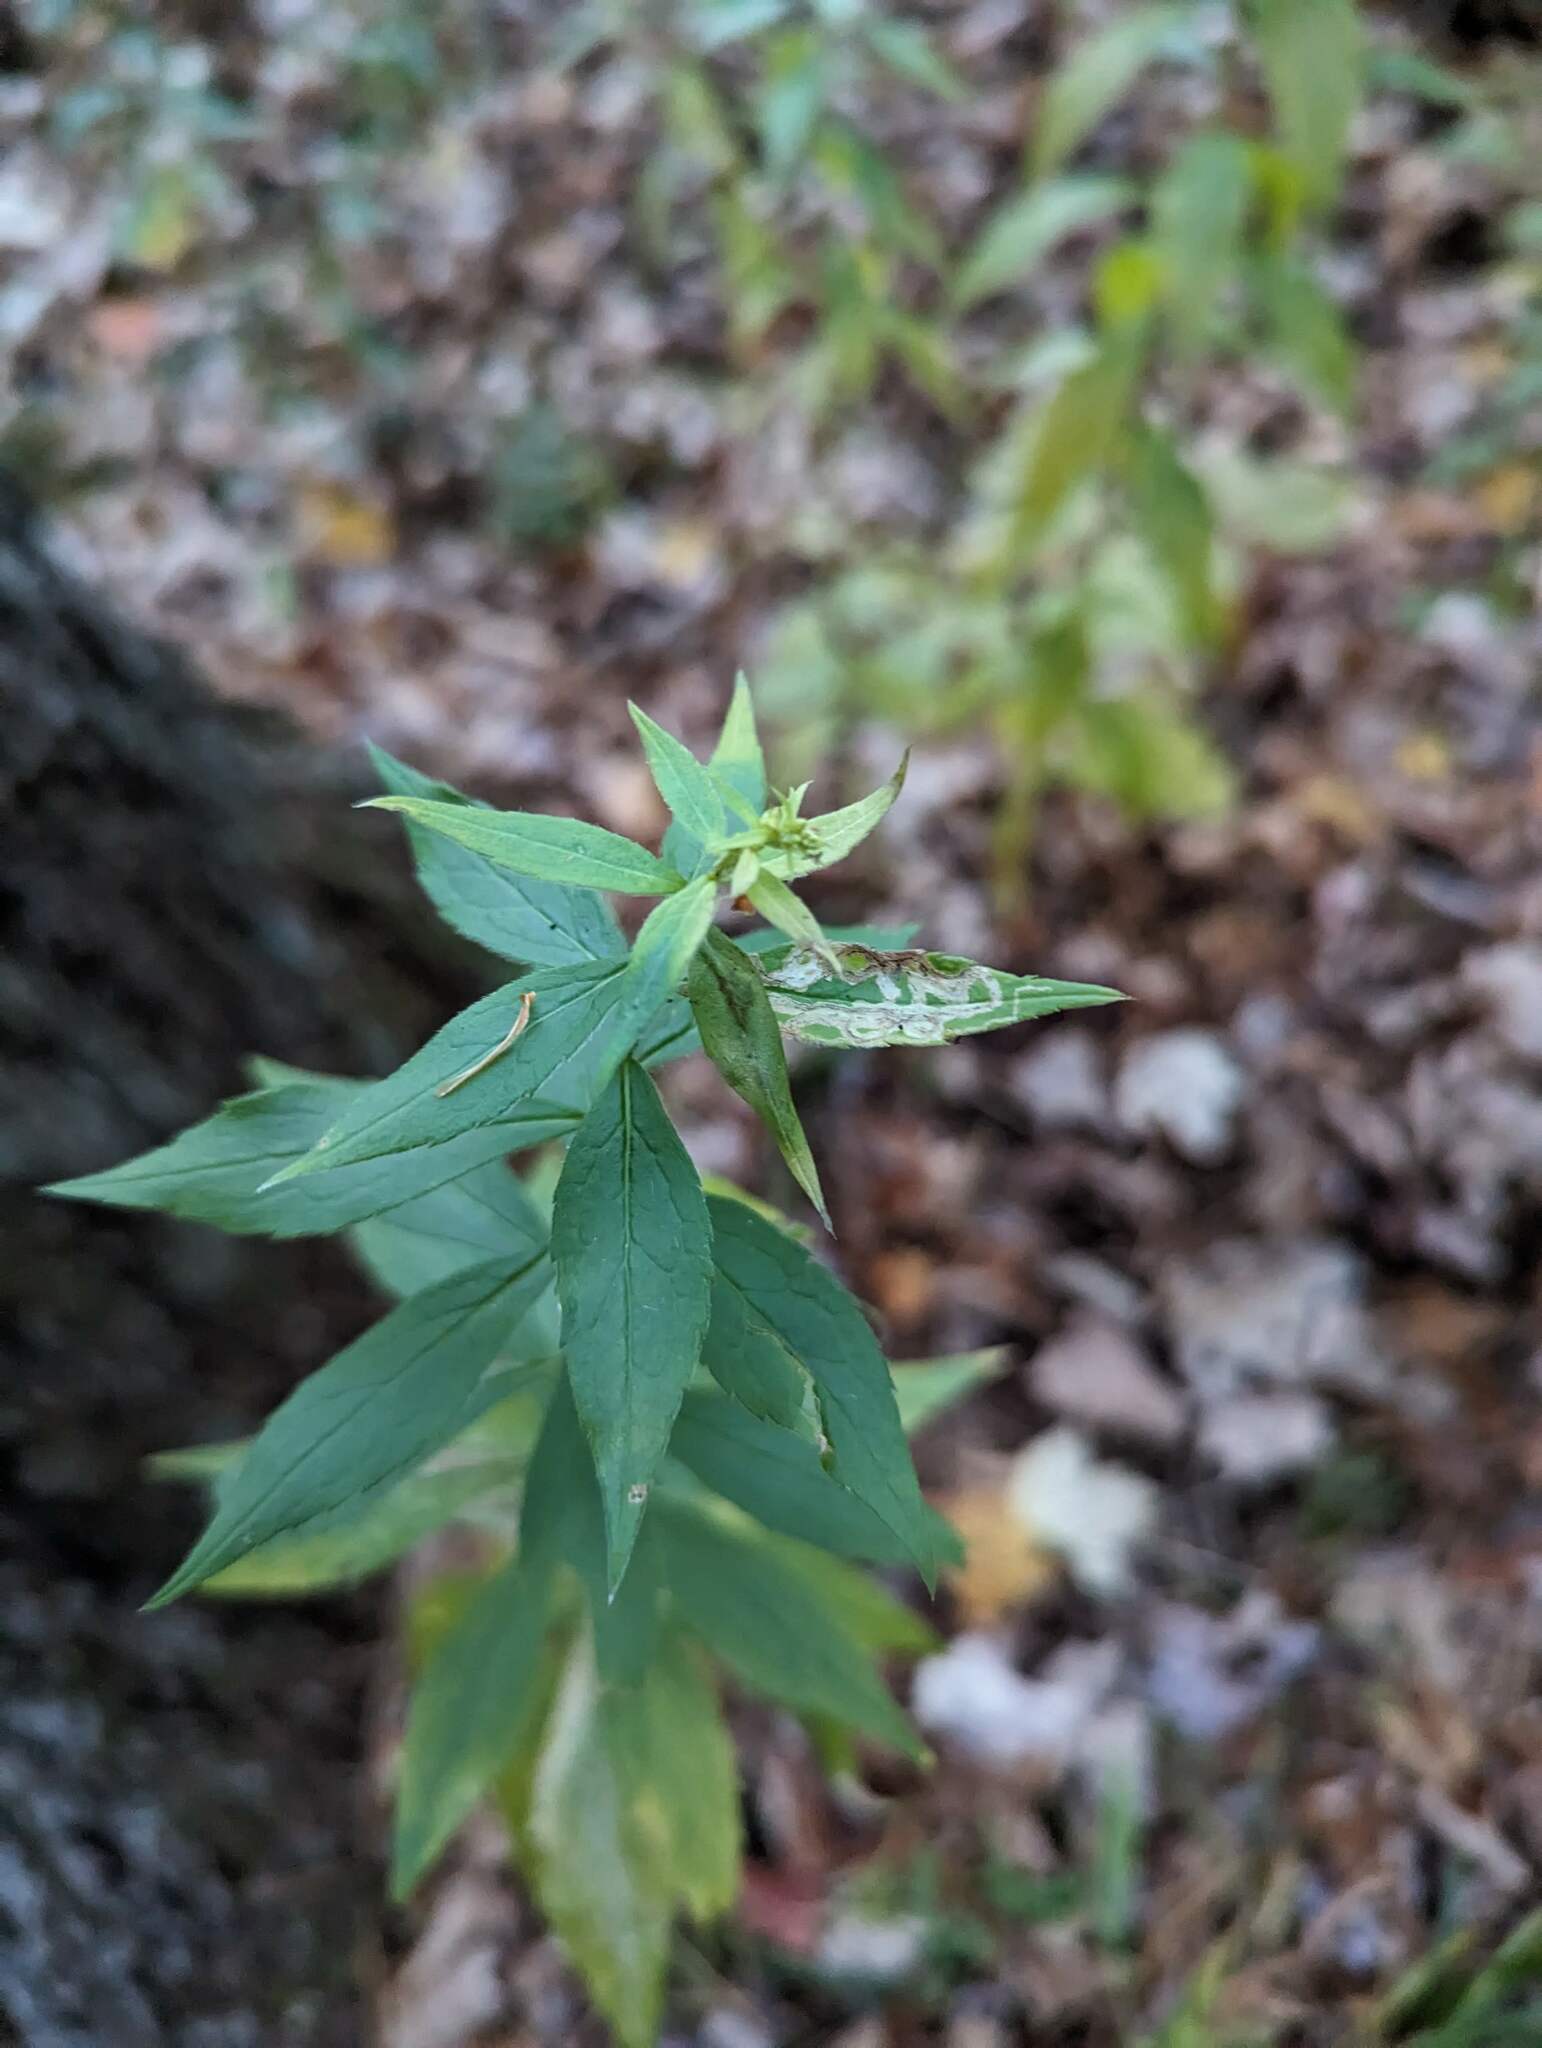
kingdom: Plantae
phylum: Tracheophyta
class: Magnoliopsida
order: Asterales
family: Asteraceae
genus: Solidago
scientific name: Solidago rugosa
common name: Rough-stemmed goldenrod
